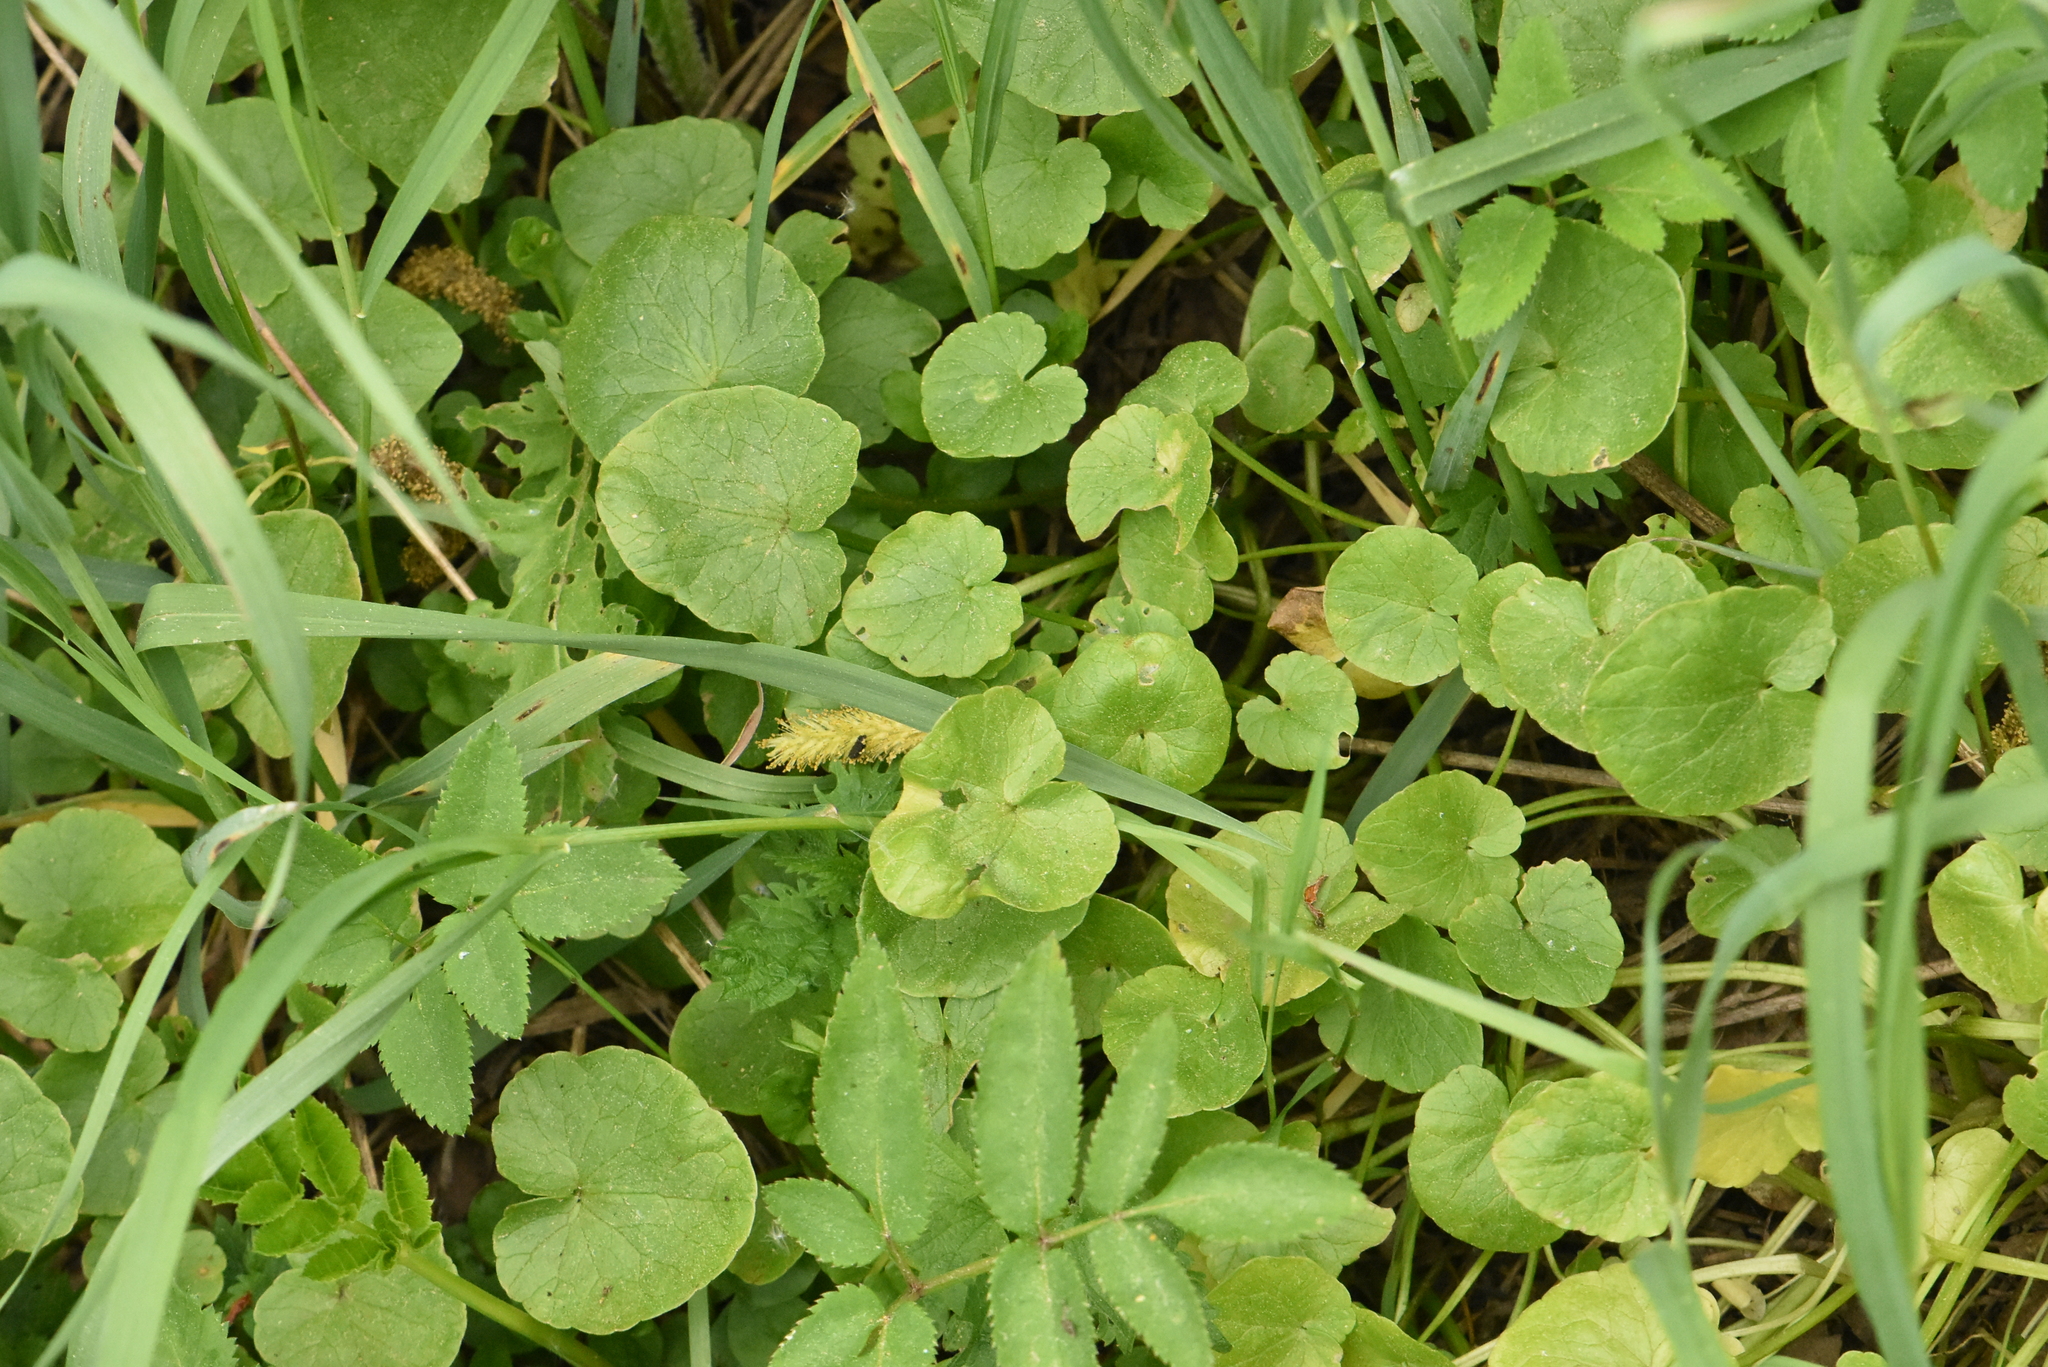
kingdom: Plantae
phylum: Tracheophyta
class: Magnoliopsida
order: Ranunculales
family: Ranunculaceae
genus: Ficaria
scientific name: Ficaria verna
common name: Lesser celandine
